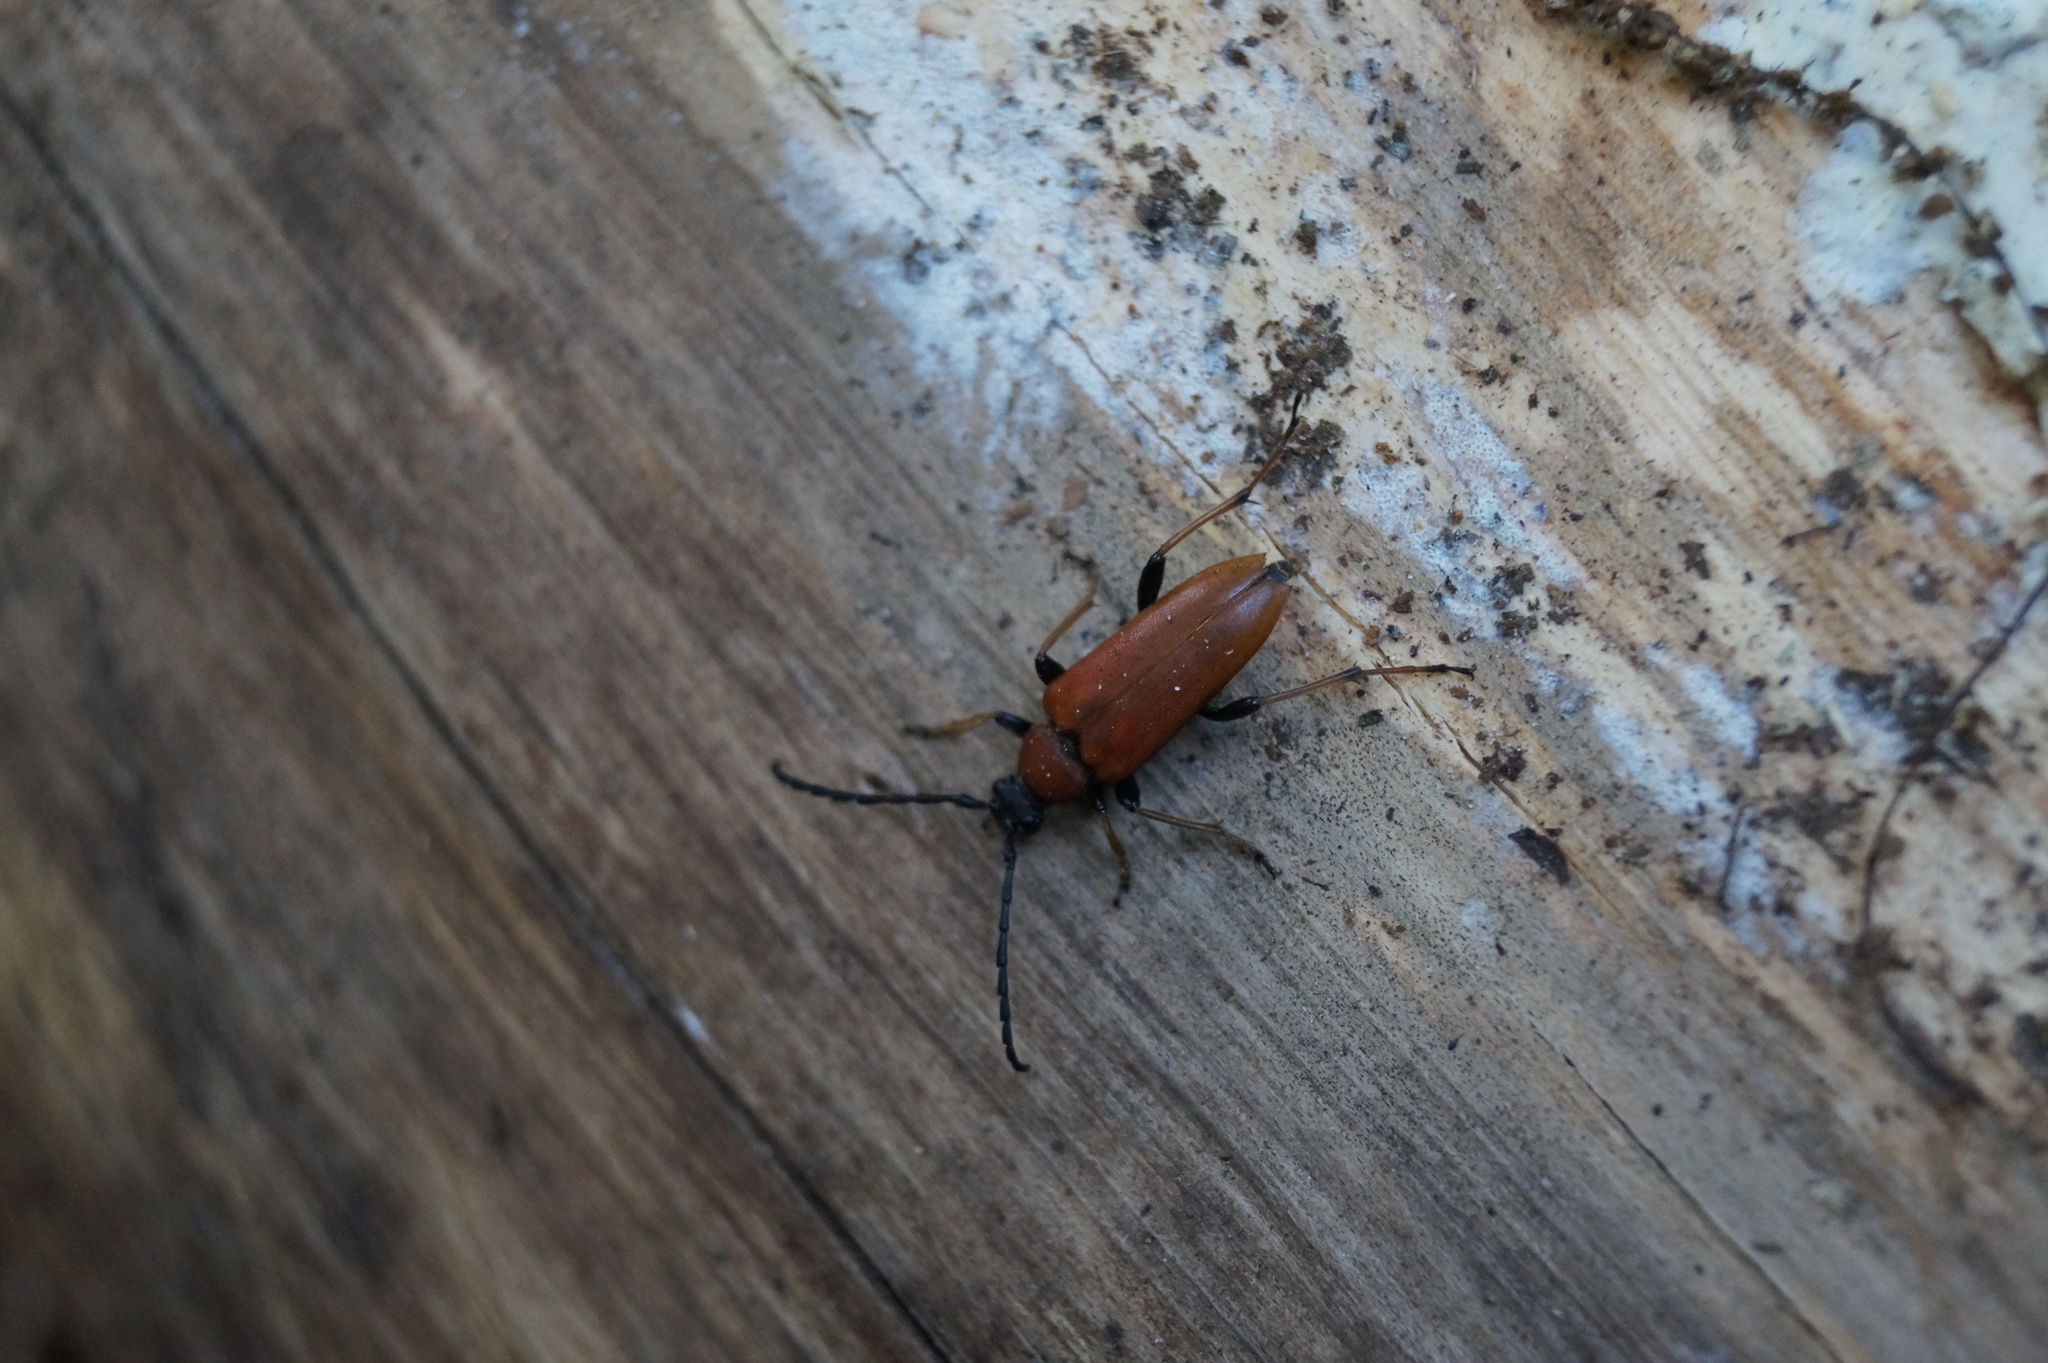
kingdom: Animalia
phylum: Arthropoda
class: Insecta
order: Coleoptera
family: Cerambycidae
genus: Stictoleptura
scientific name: Stictoleptura rubra
